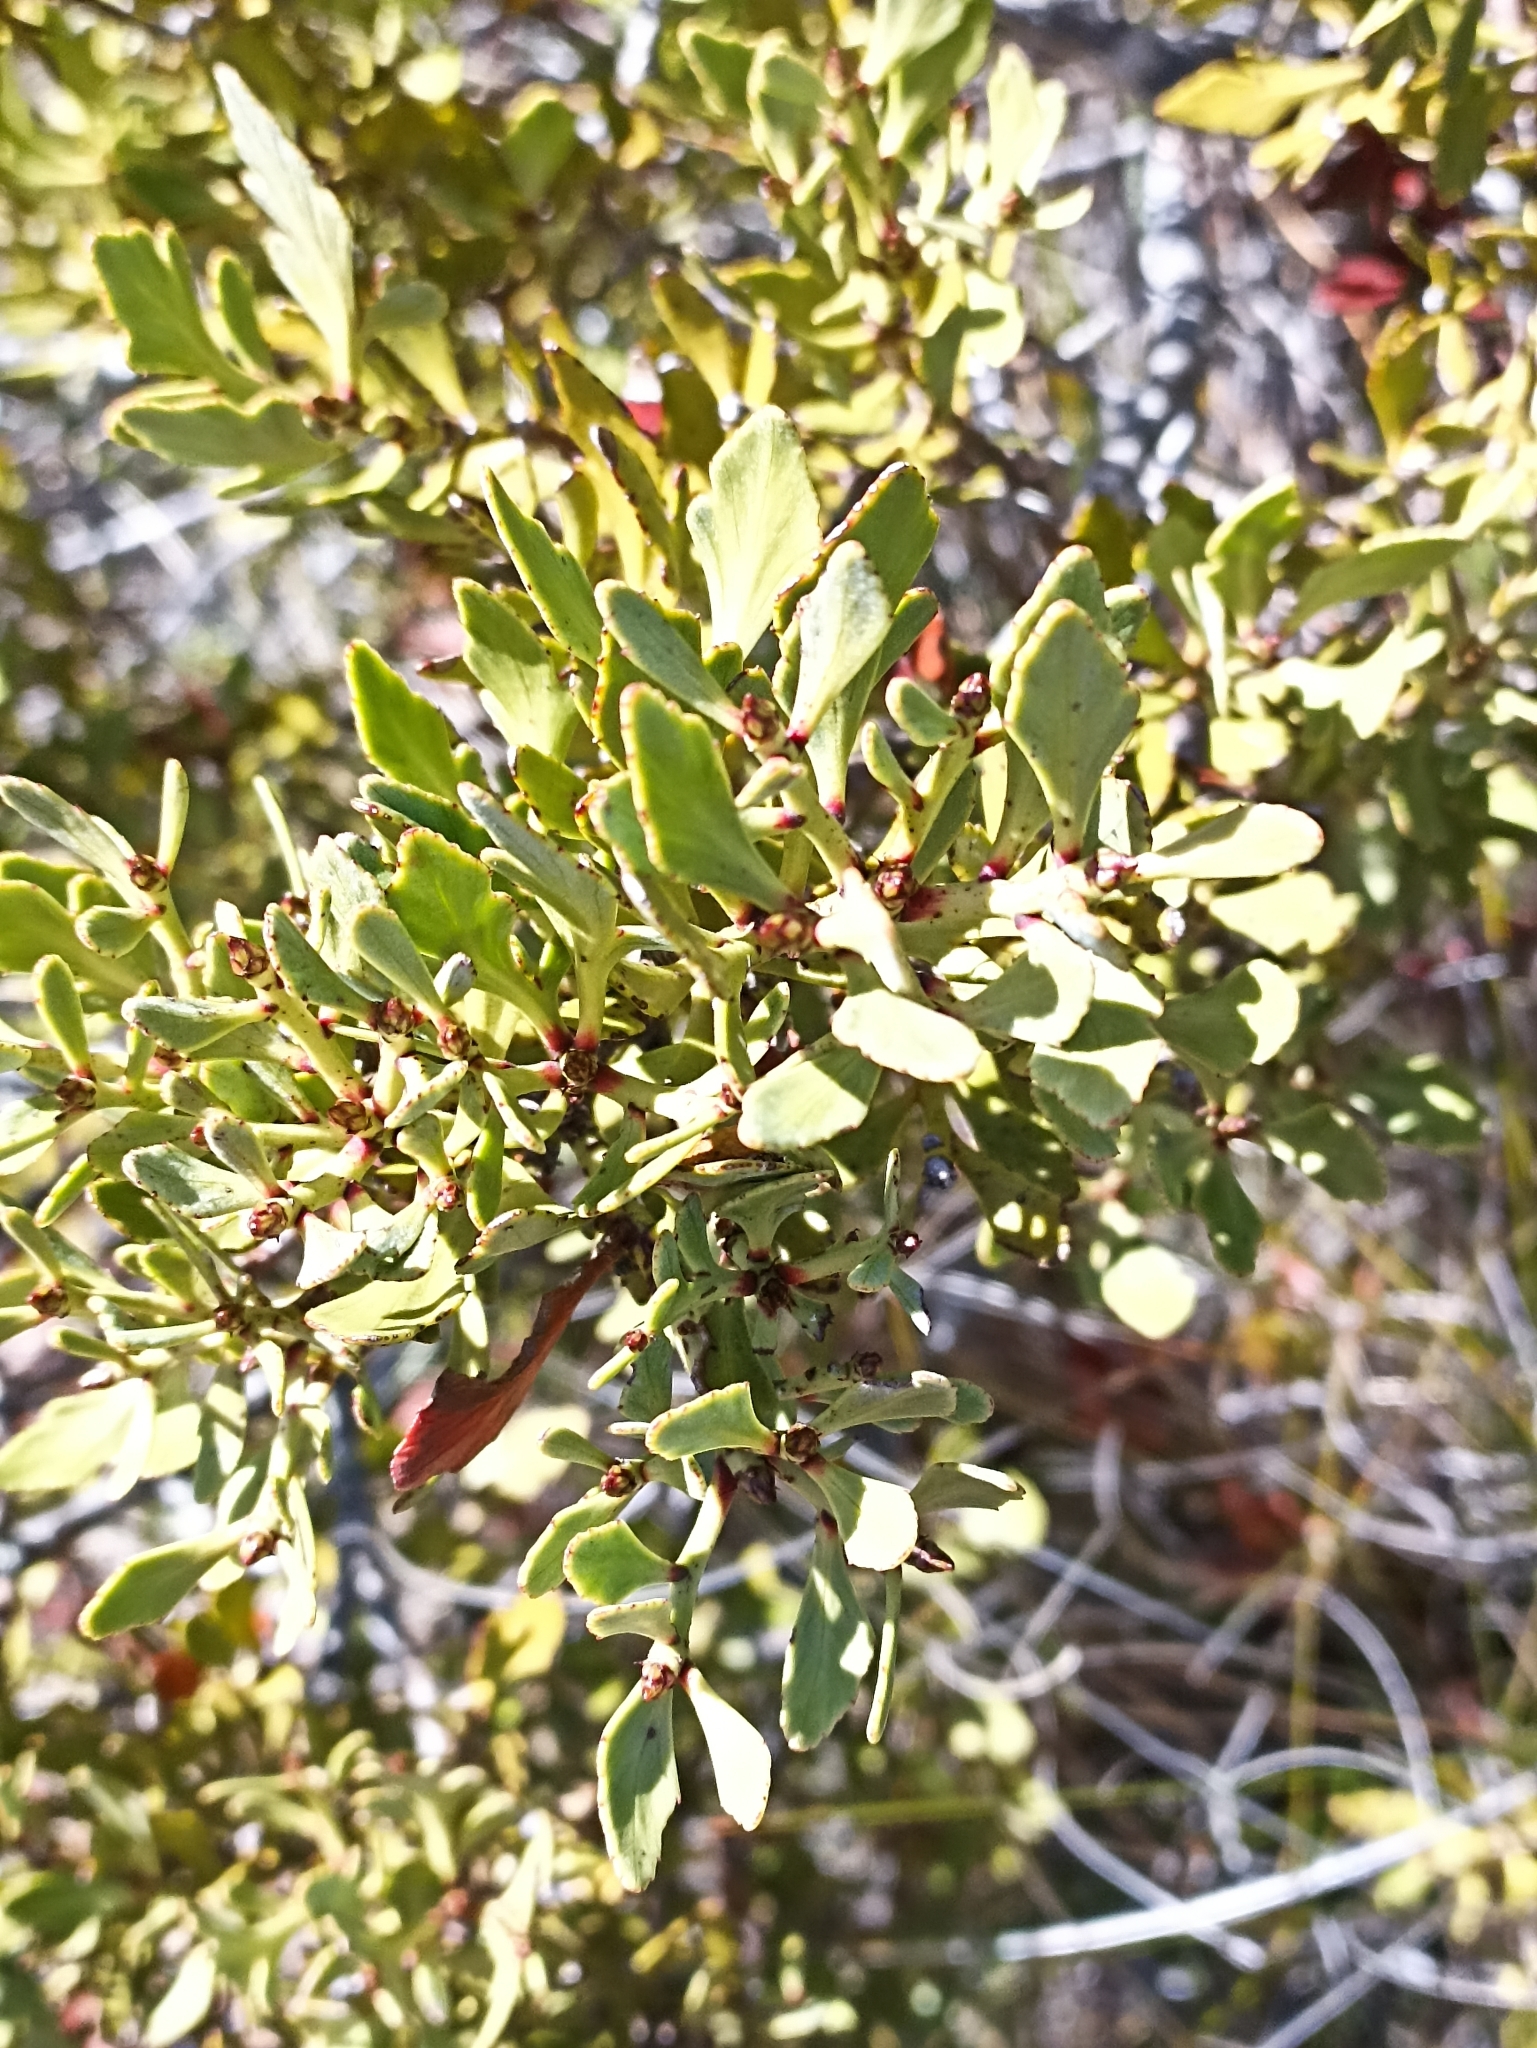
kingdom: Plantae
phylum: Tracheophyta
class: Pinopsida
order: Pinales
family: Phyllocladaceae
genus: Phyllocladus
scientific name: Phyllocladus trichomanoides
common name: Celery pine
